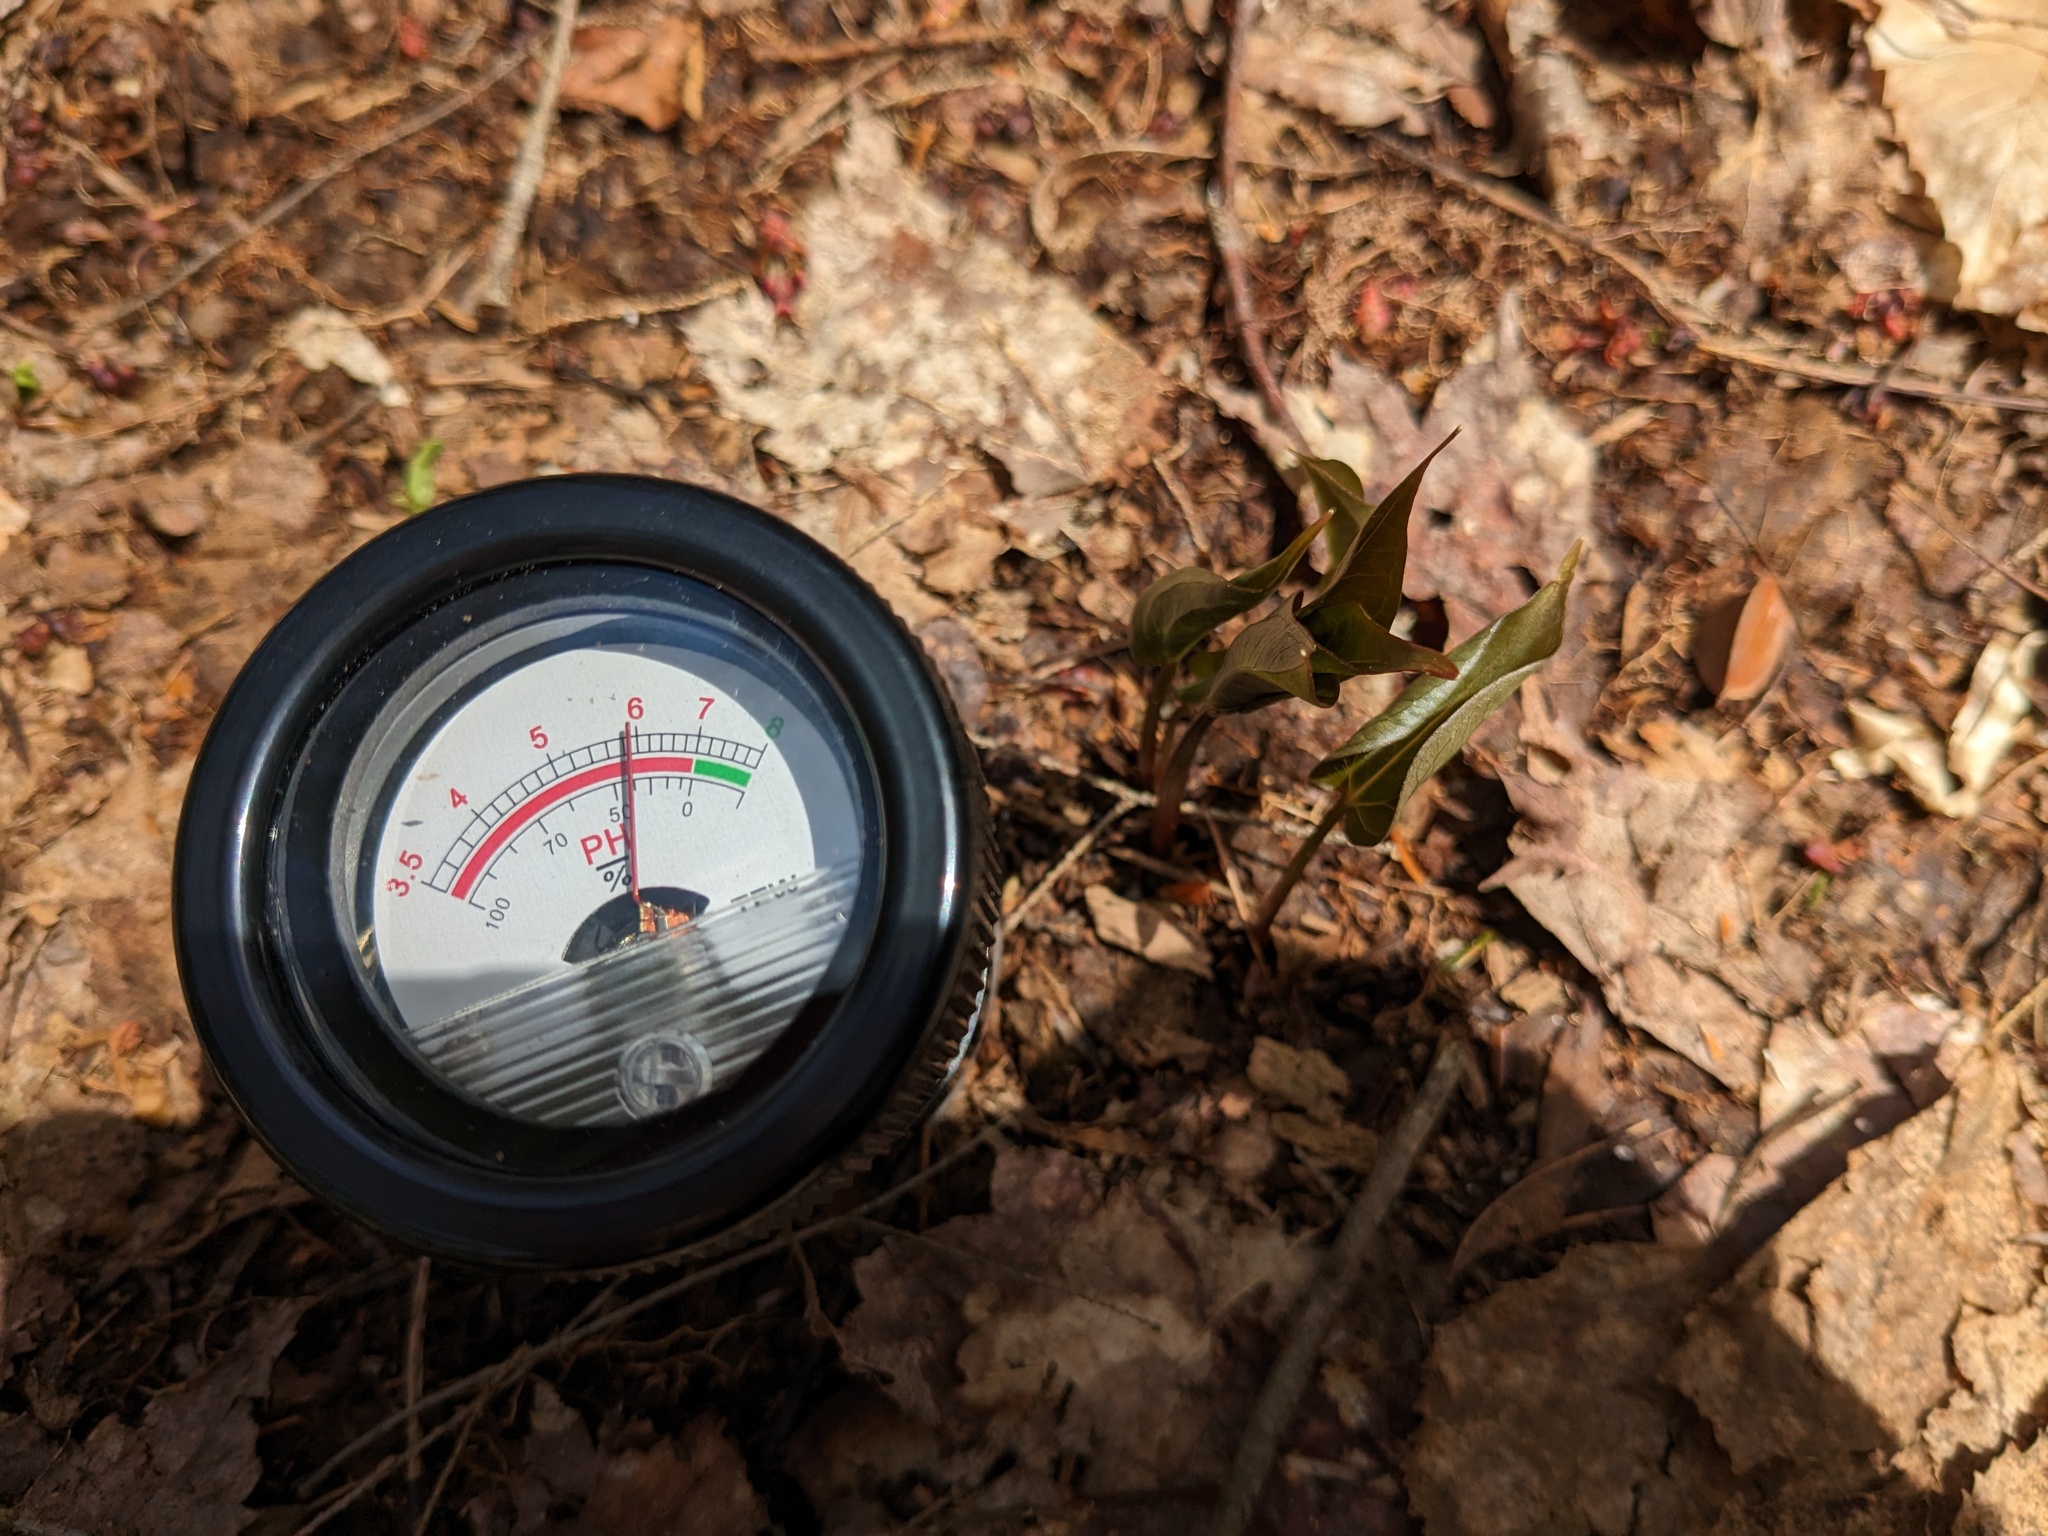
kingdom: Plantae
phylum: Tracheophyta
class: Liliopsida
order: Liliales
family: Melanthiaceae
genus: Trillium
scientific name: Trillium undulatum
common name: Paint trillium
